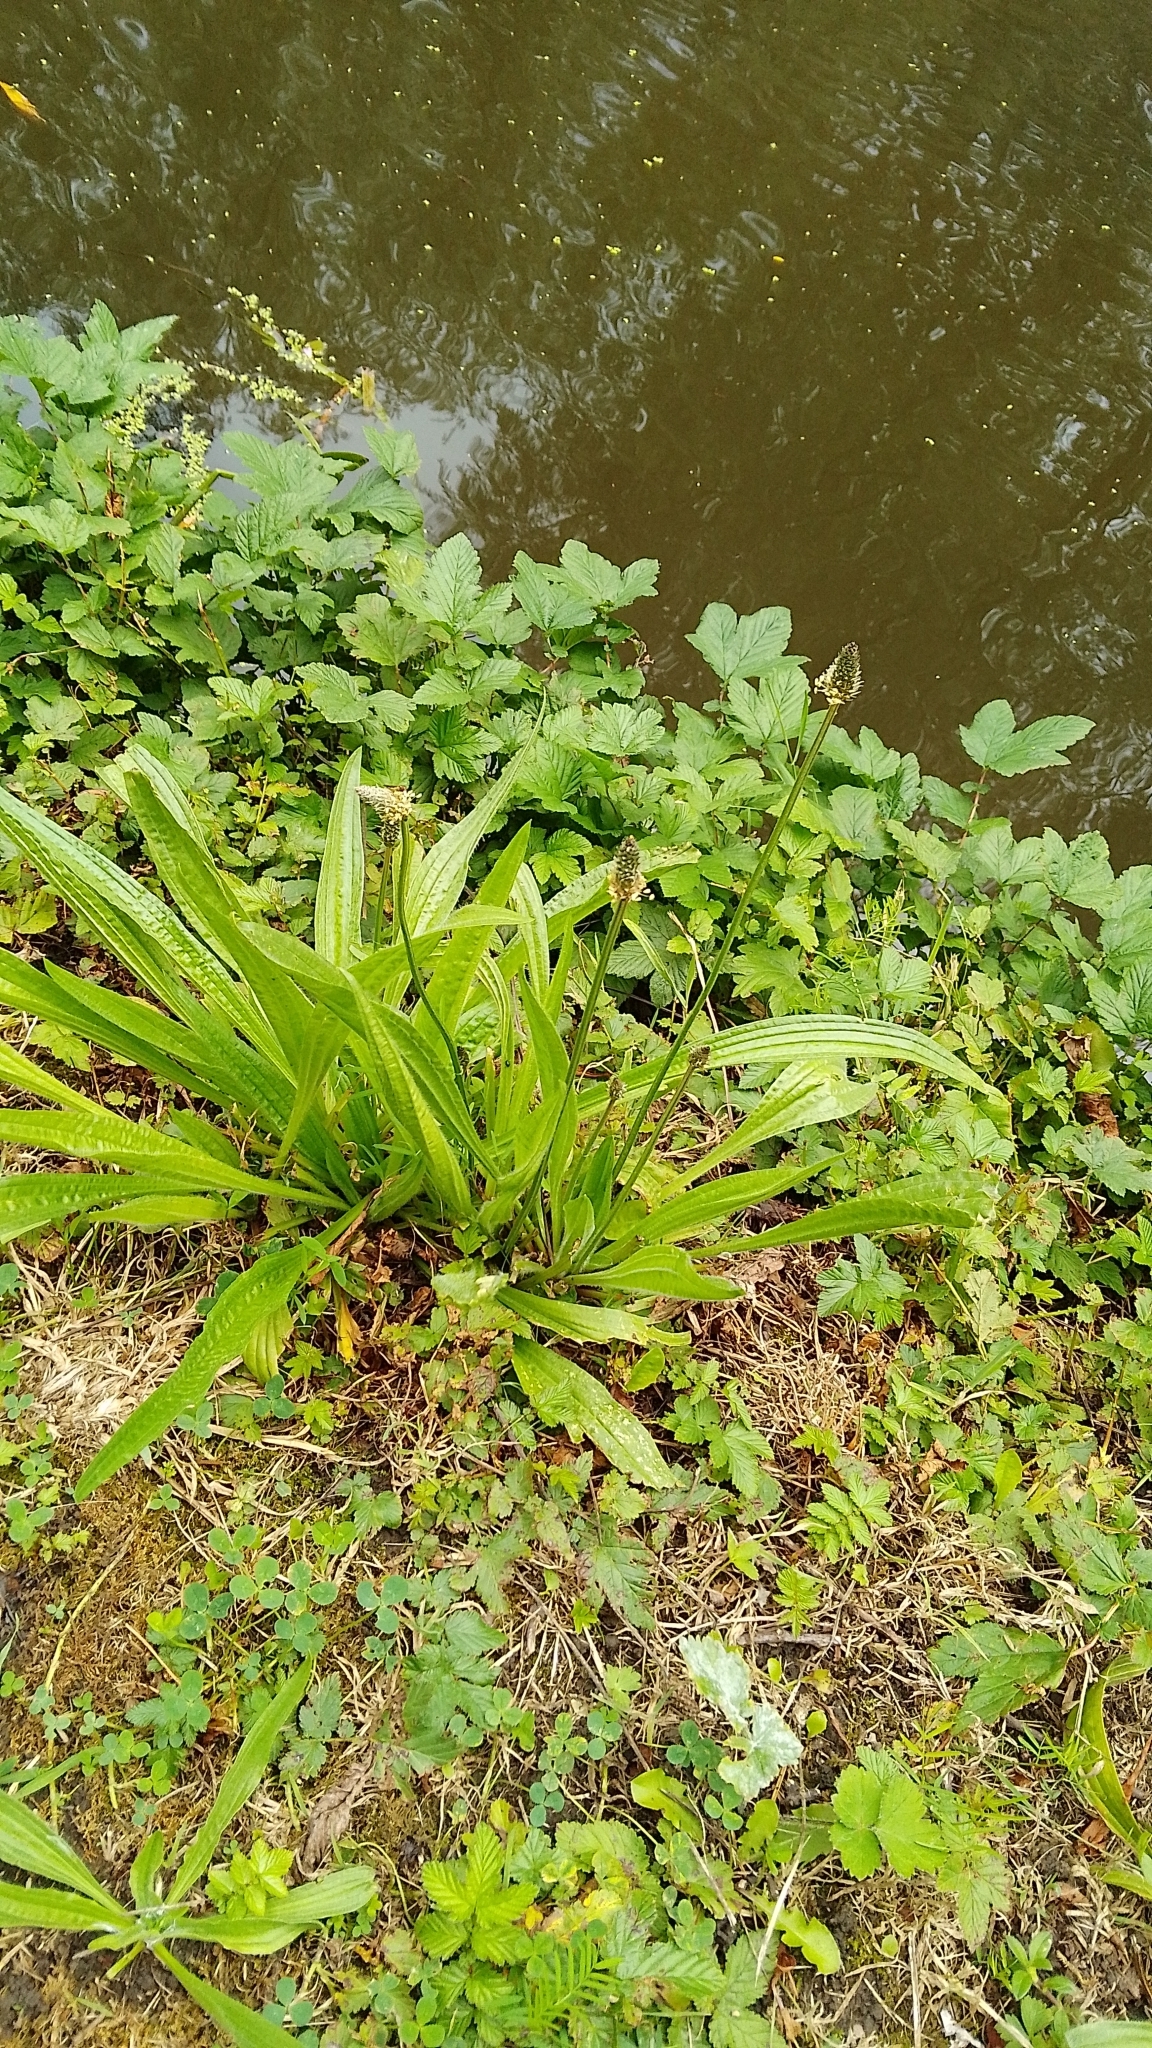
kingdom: Plantae
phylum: Tracheophyta
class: Magnoliopsida
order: Lamiales
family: Plantaginaceae
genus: Plantago
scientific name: Plantago lanceolata
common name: Ribwort plantain
